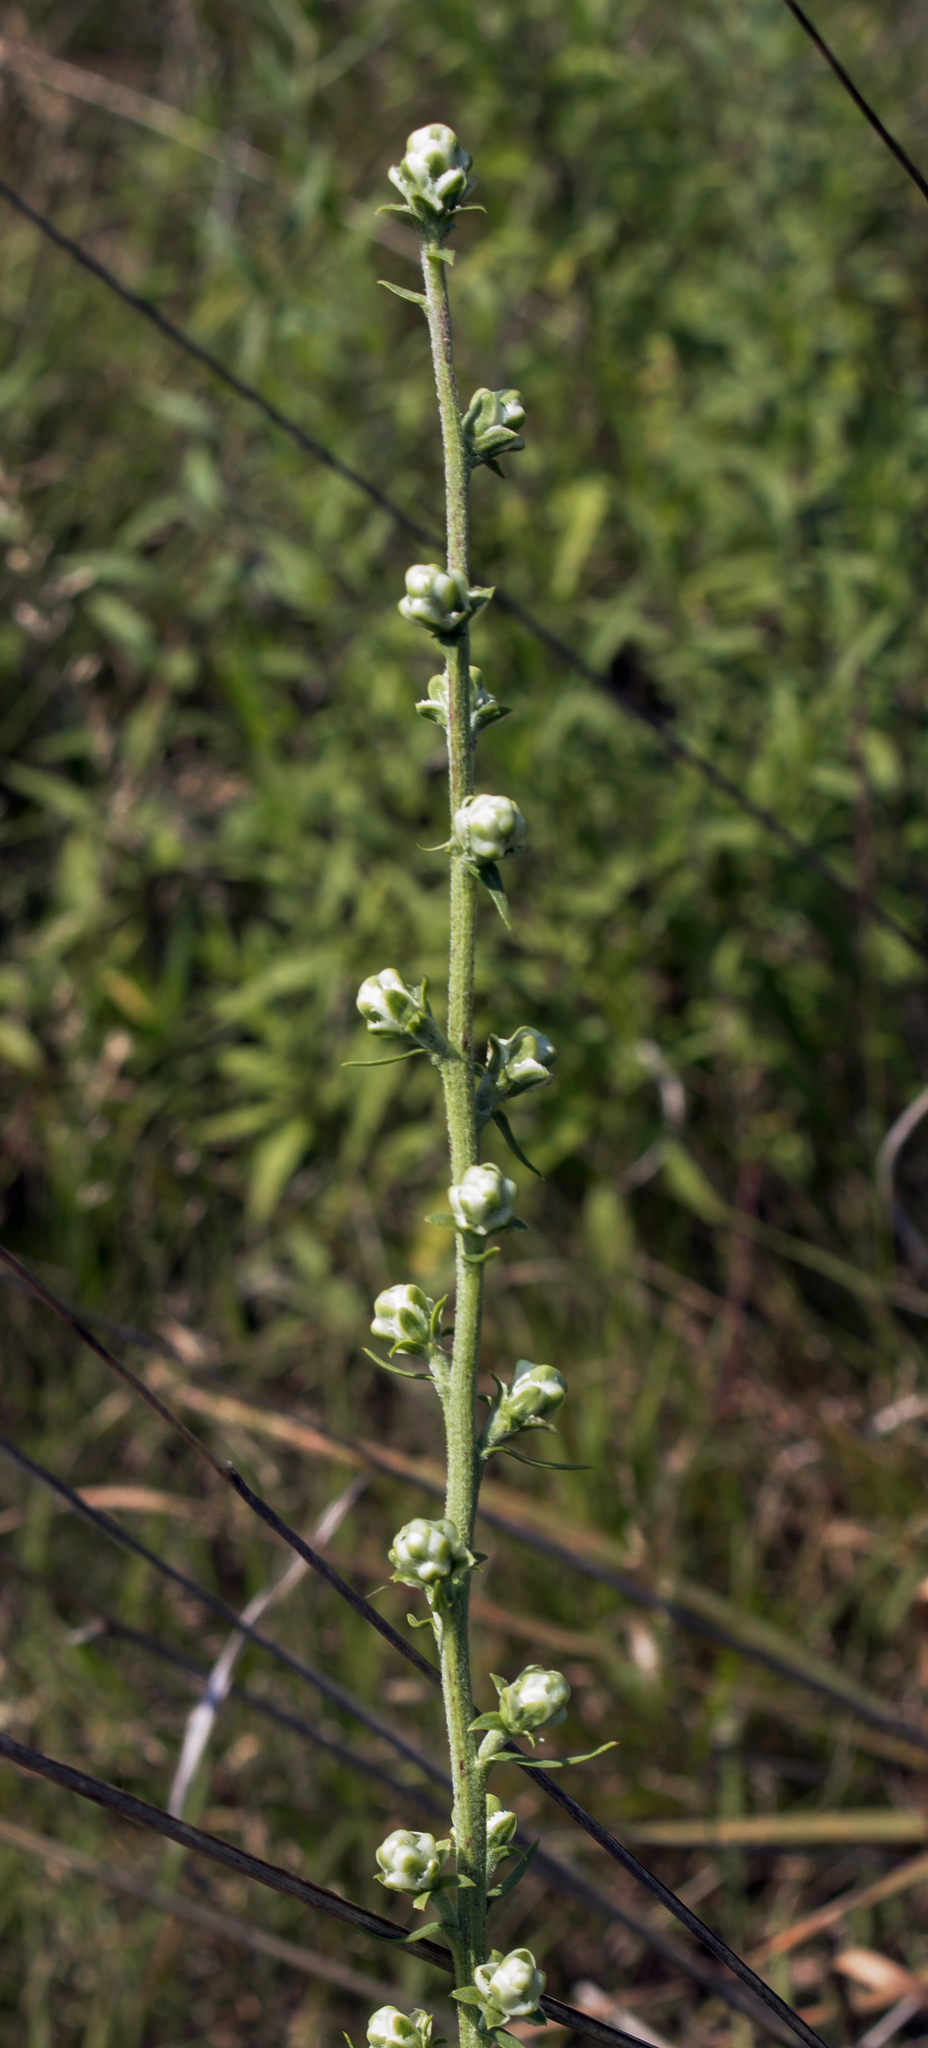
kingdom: Plantae
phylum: Tracheophyta
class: Magnoliopsida
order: Asterales
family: Asteraceae
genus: Liatris
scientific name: Liatris aspera
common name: Lacerate blazing-star
